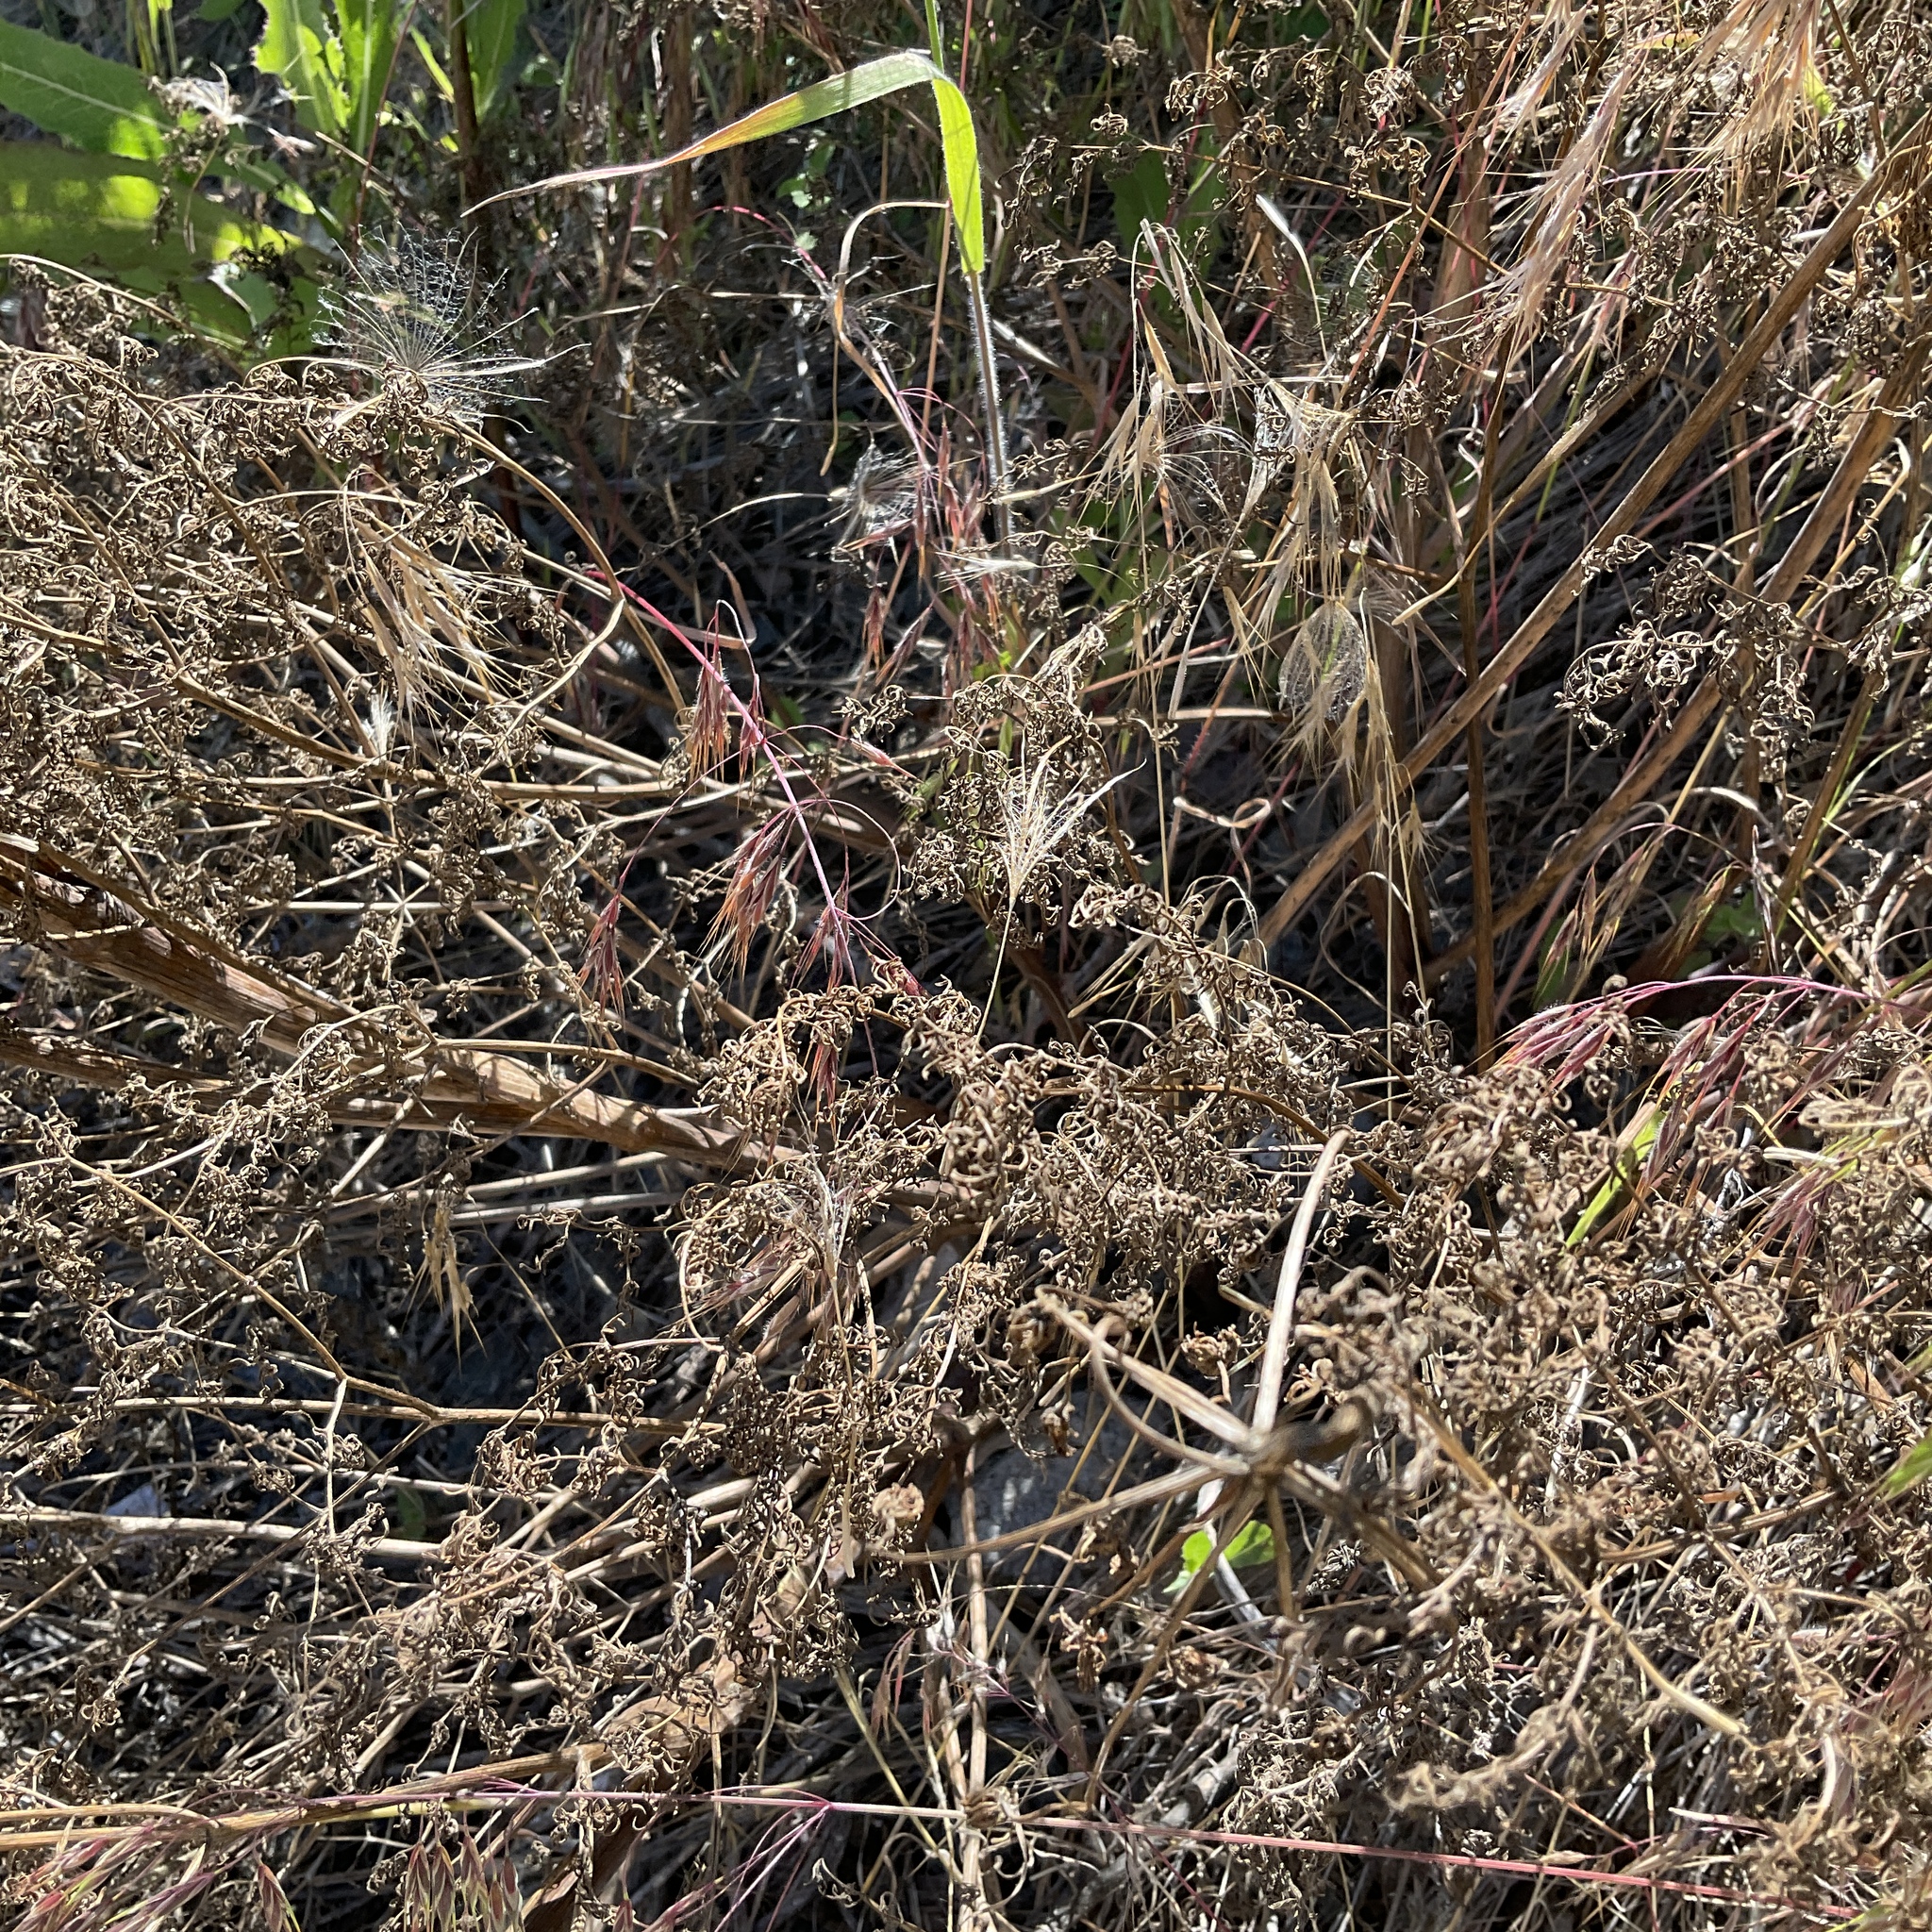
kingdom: Plantae
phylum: Tracheophyta
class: Magnoliopsida
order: Apiales
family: Apiaceae
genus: Lomatium
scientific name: Lomatium multifidum
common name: Carrot-leaved biscuitroot
